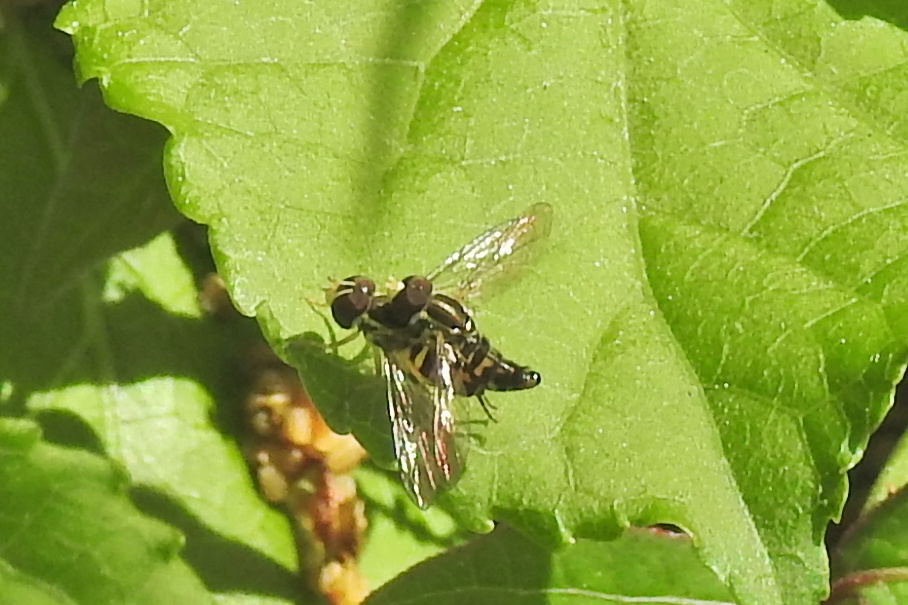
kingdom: Animalia
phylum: Arthropoda
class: Insecta
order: Diptera
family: Syrphidae
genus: Toxomerus
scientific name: Toxomerus geminatus
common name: Eastern calligrapher
